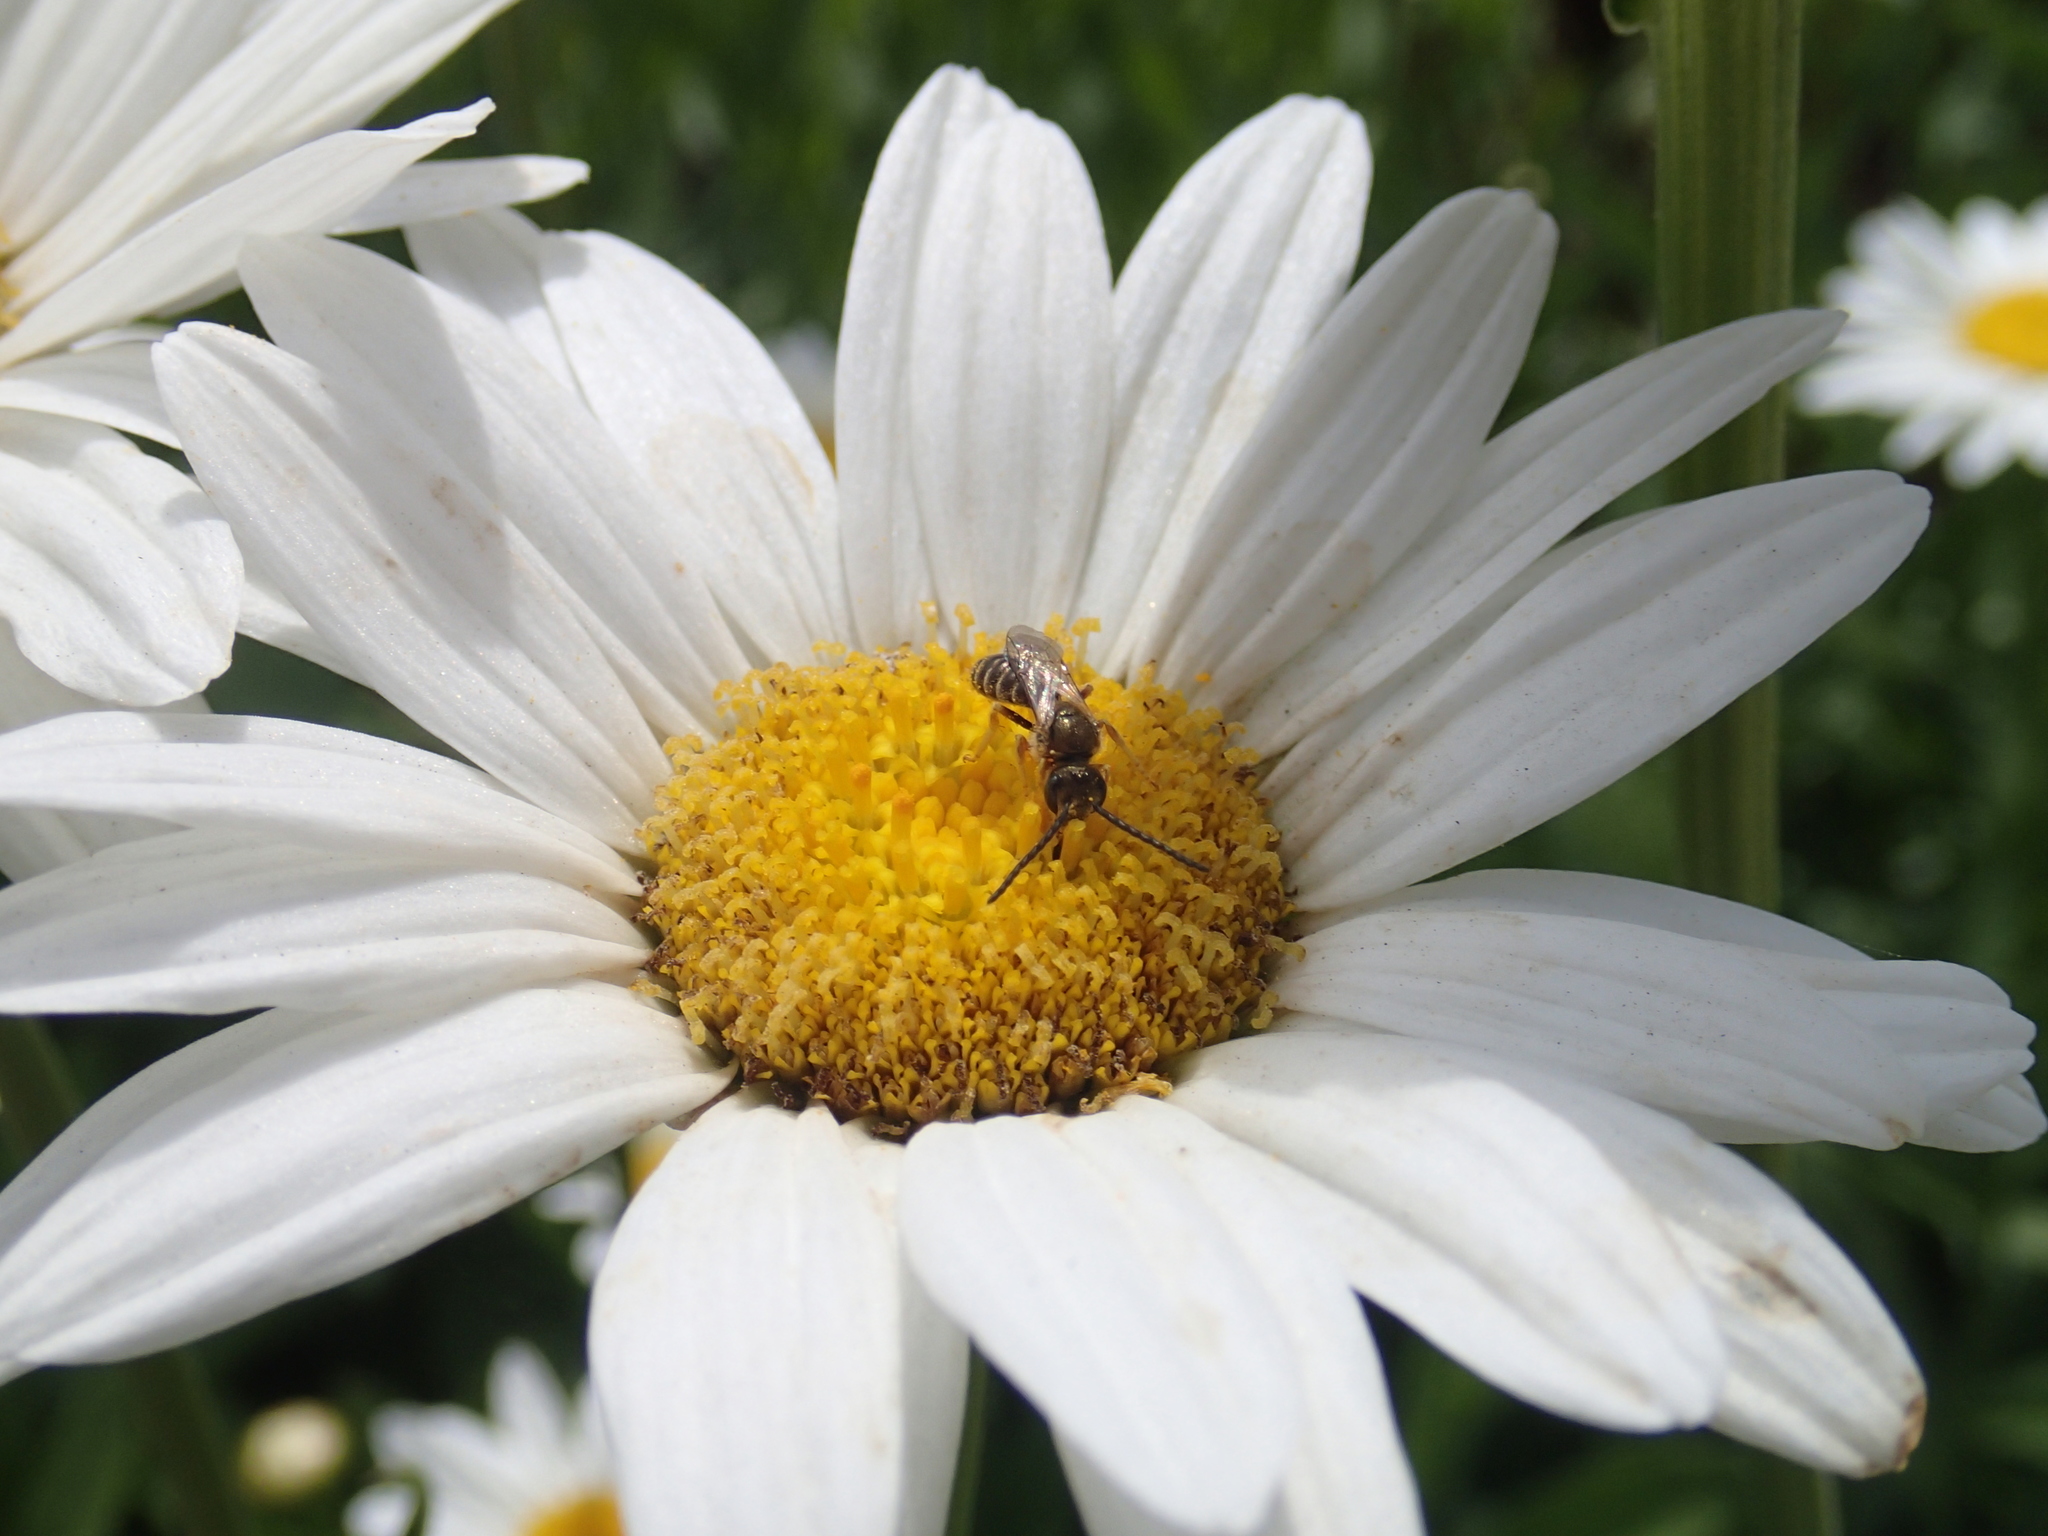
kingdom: Animalia
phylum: Arthropoda
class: Insecta
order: Hymenoptera
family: Halictidae
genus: Halictus
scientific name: Halictus confusus
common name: Southern bronze furrow bee
